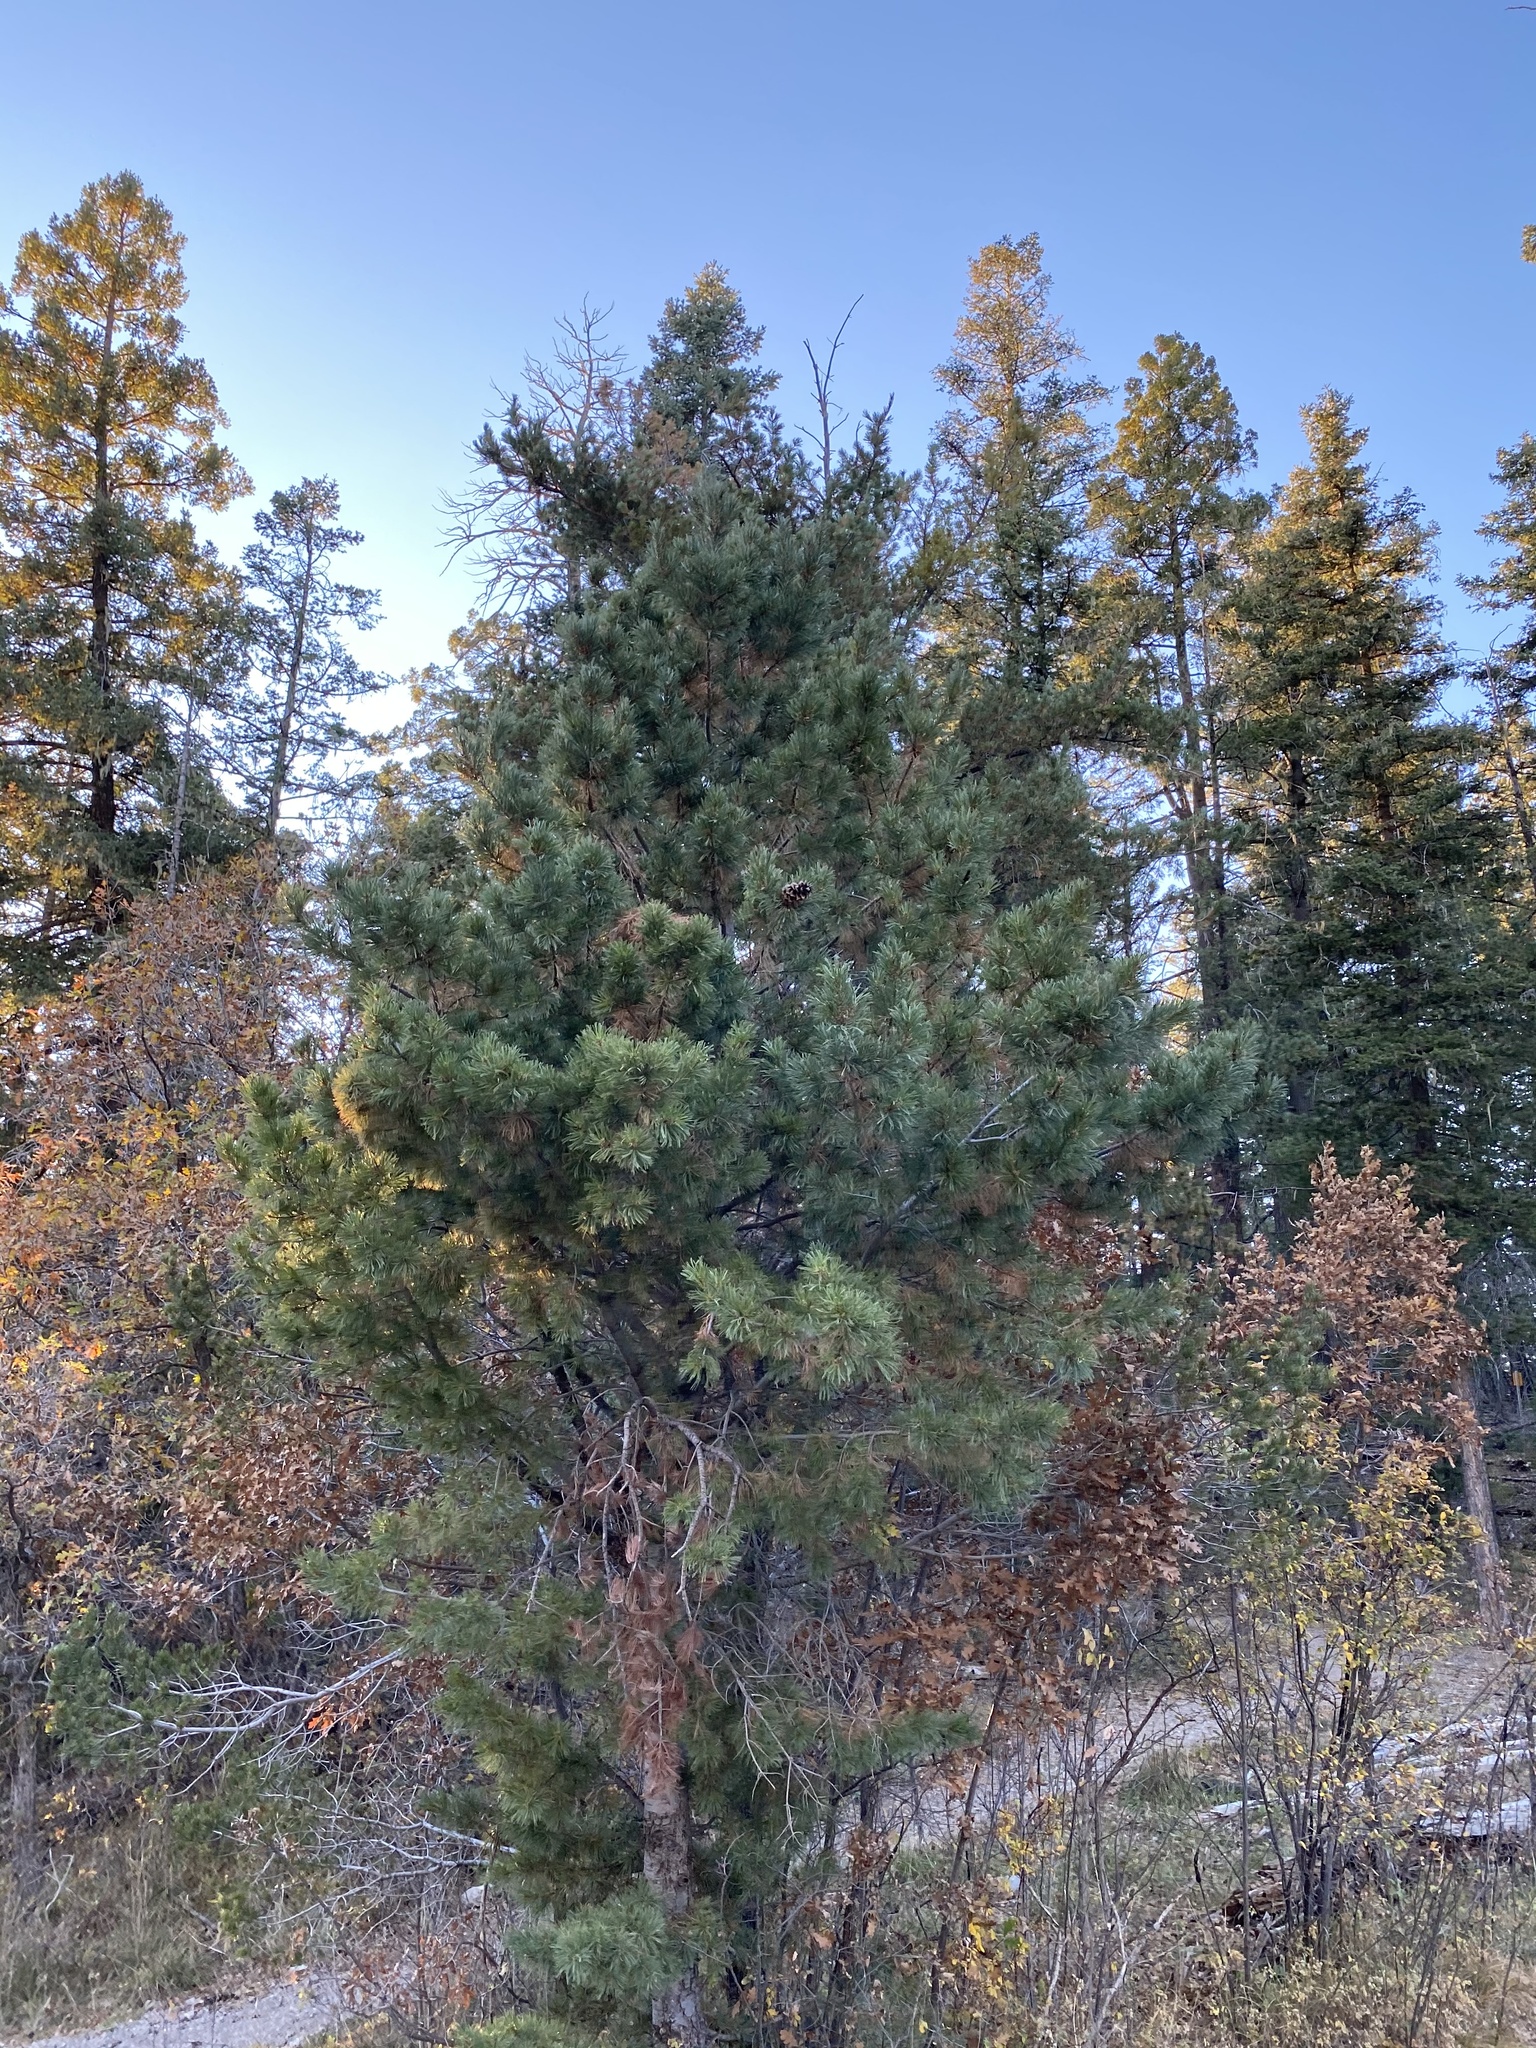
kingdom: Plantae
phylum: Tracheophyta
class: Pinopsida
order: Pinales
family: Pinaceae
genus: Pinus
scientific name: Pinus strobiformis
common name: Southwestern white pine
